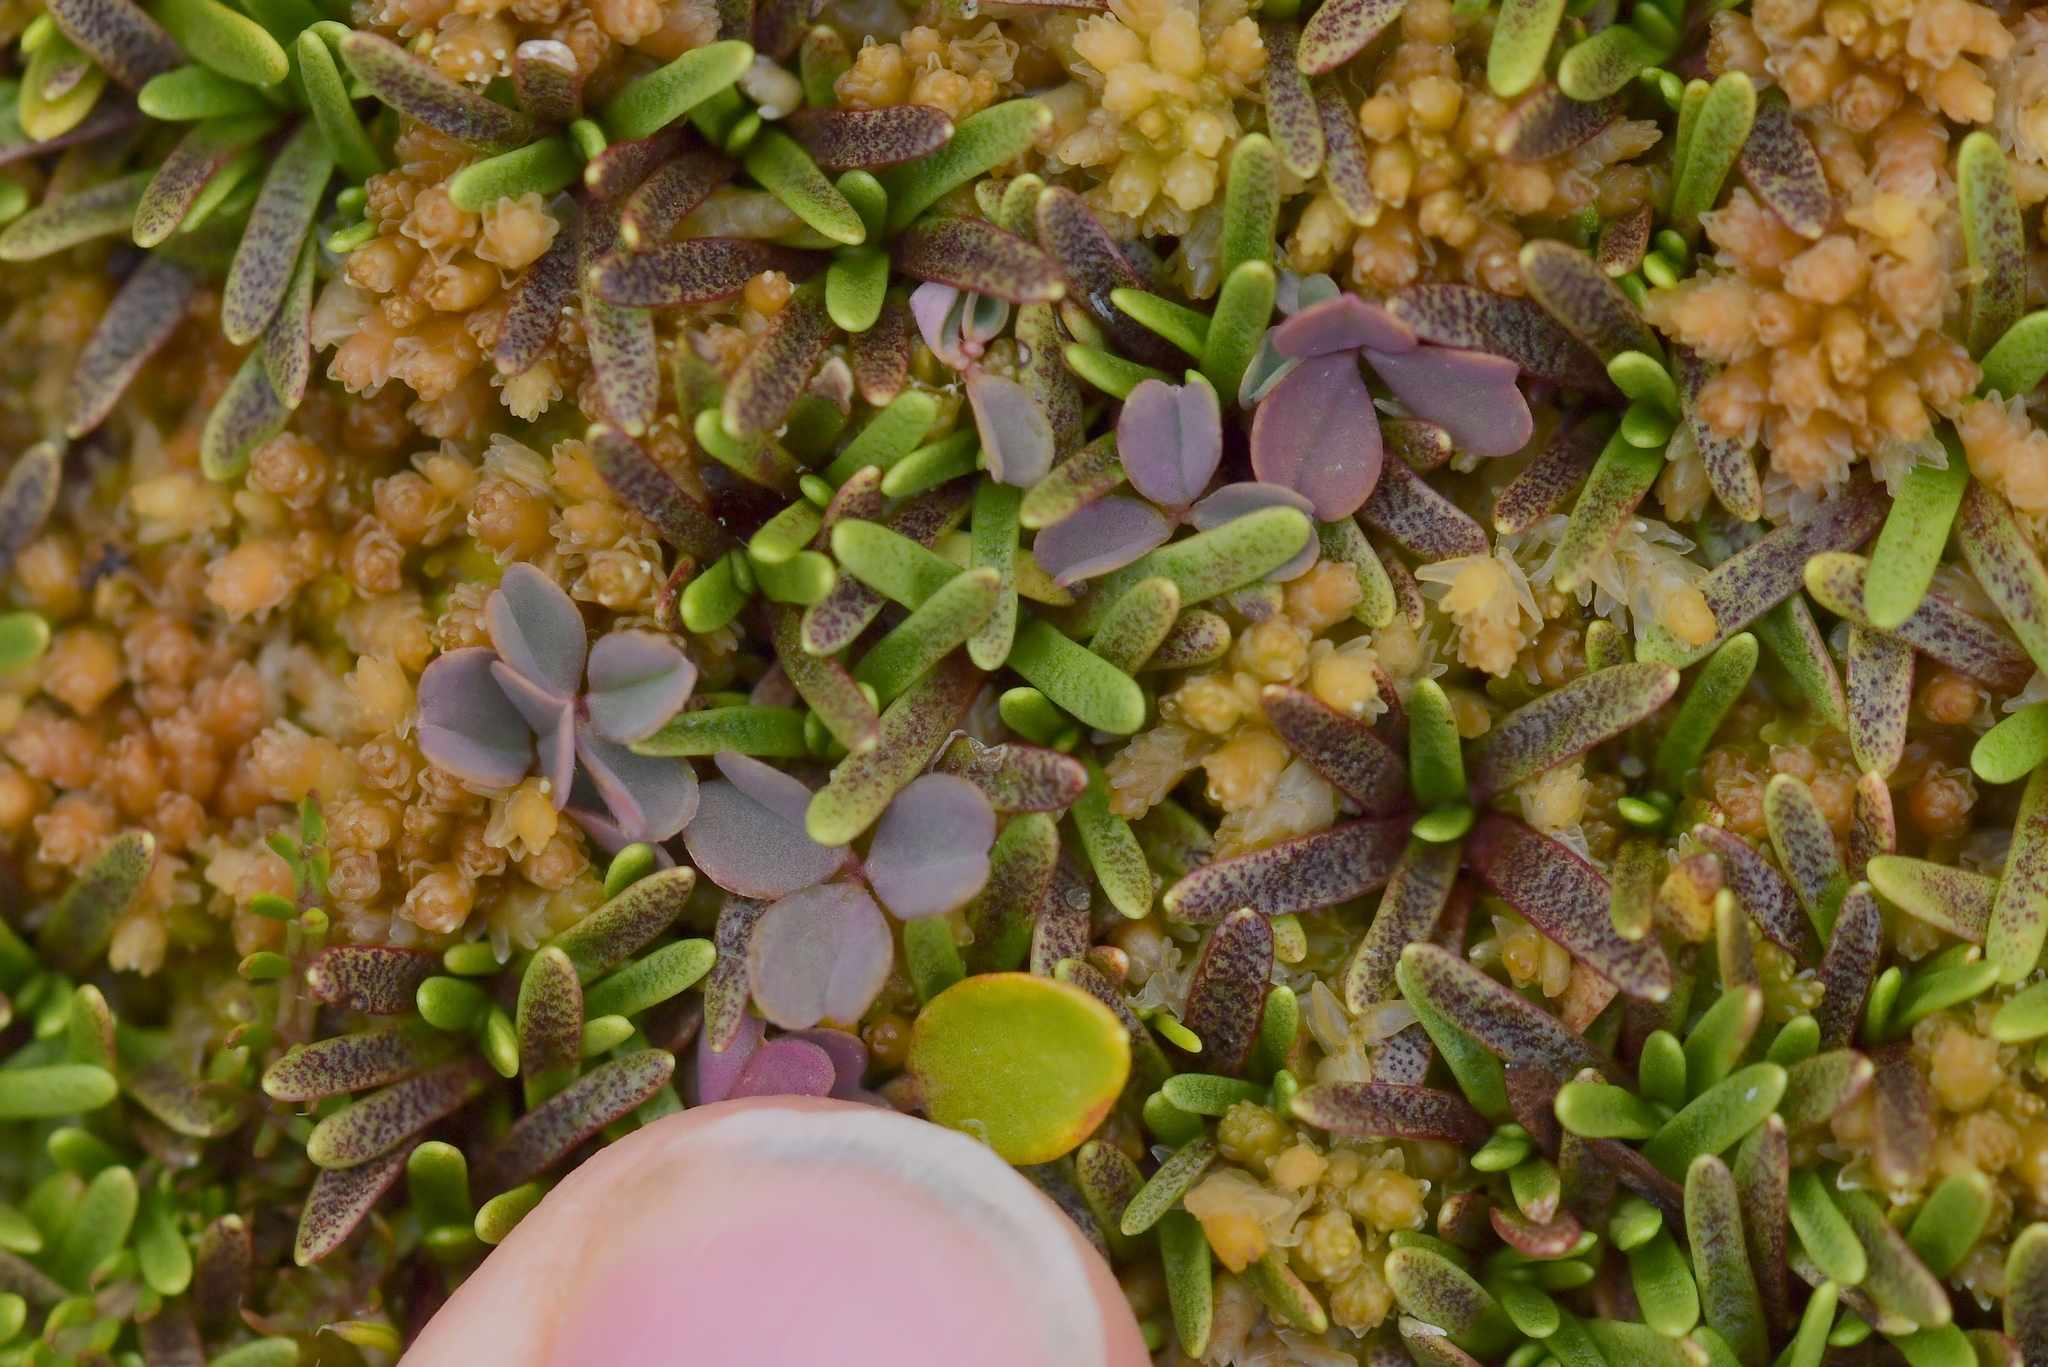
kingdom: Plantae
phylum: Tracheophyta
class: Magnoliopsida
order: Oxalidales
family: Oxalidaceae
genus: Oxalis
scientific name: Oxalis magellanica
